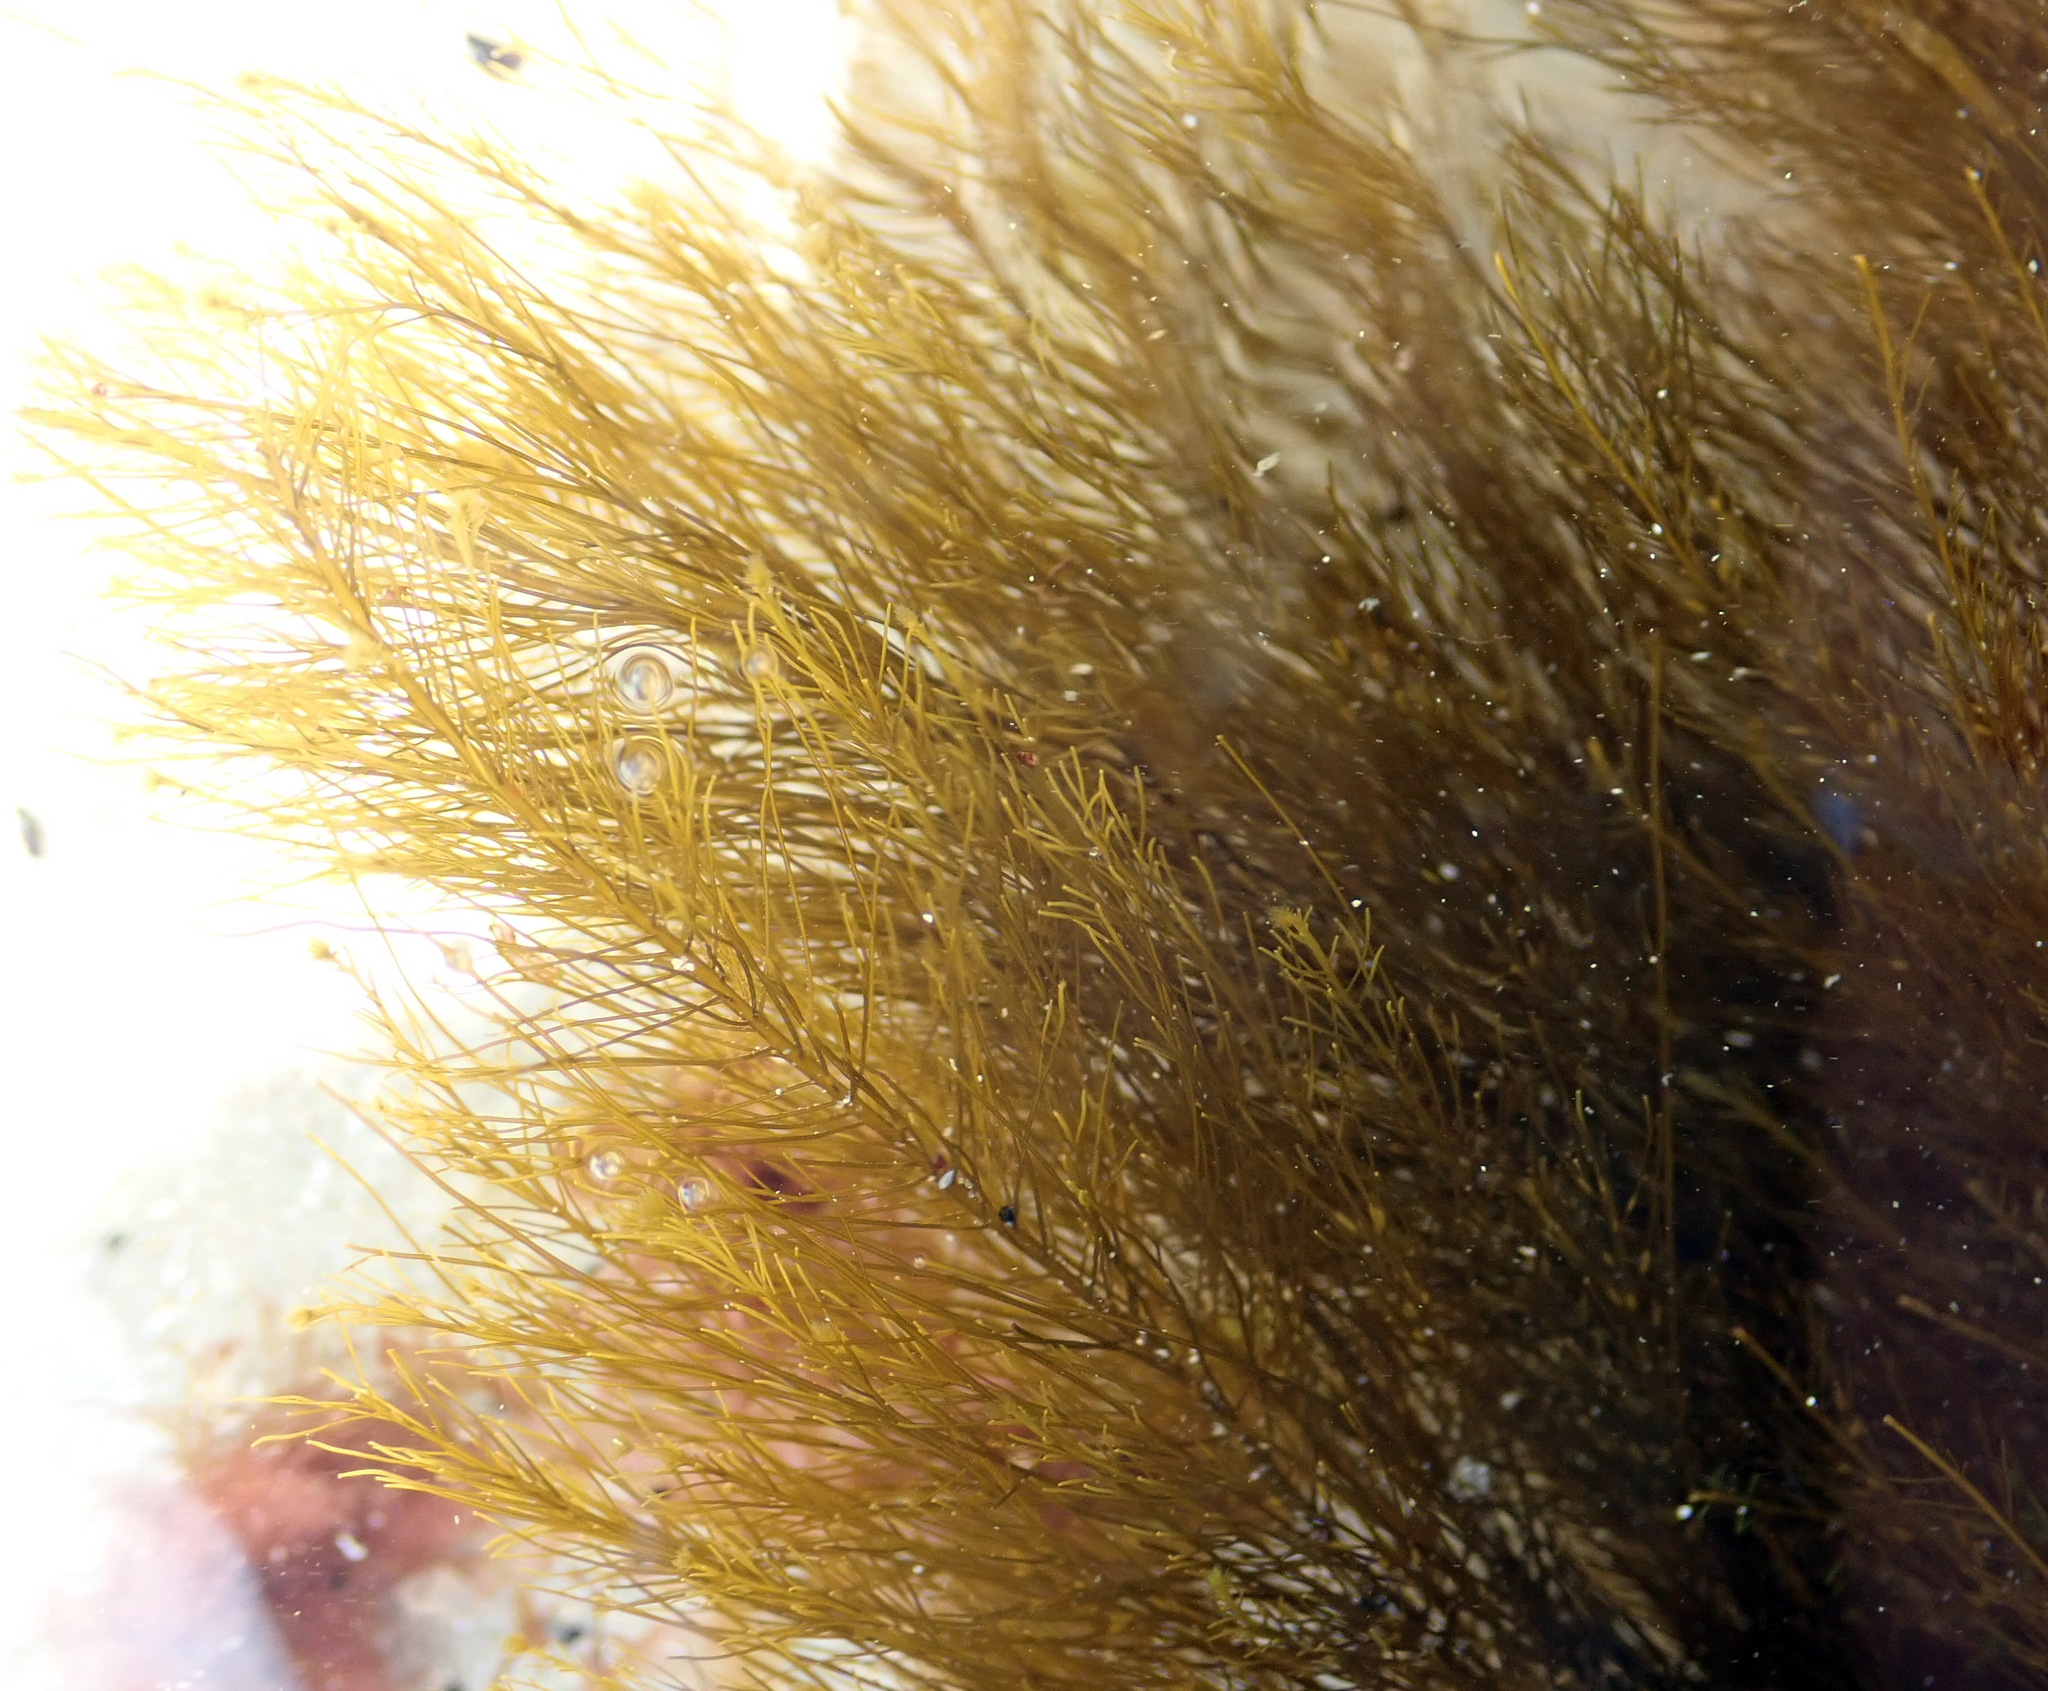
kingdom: Chromista
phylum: Ochrophyta
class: Phaeophyceae
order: Sporochnales
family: Sporochnaceae
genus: Perithalia
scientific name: Perithalia capillaris
